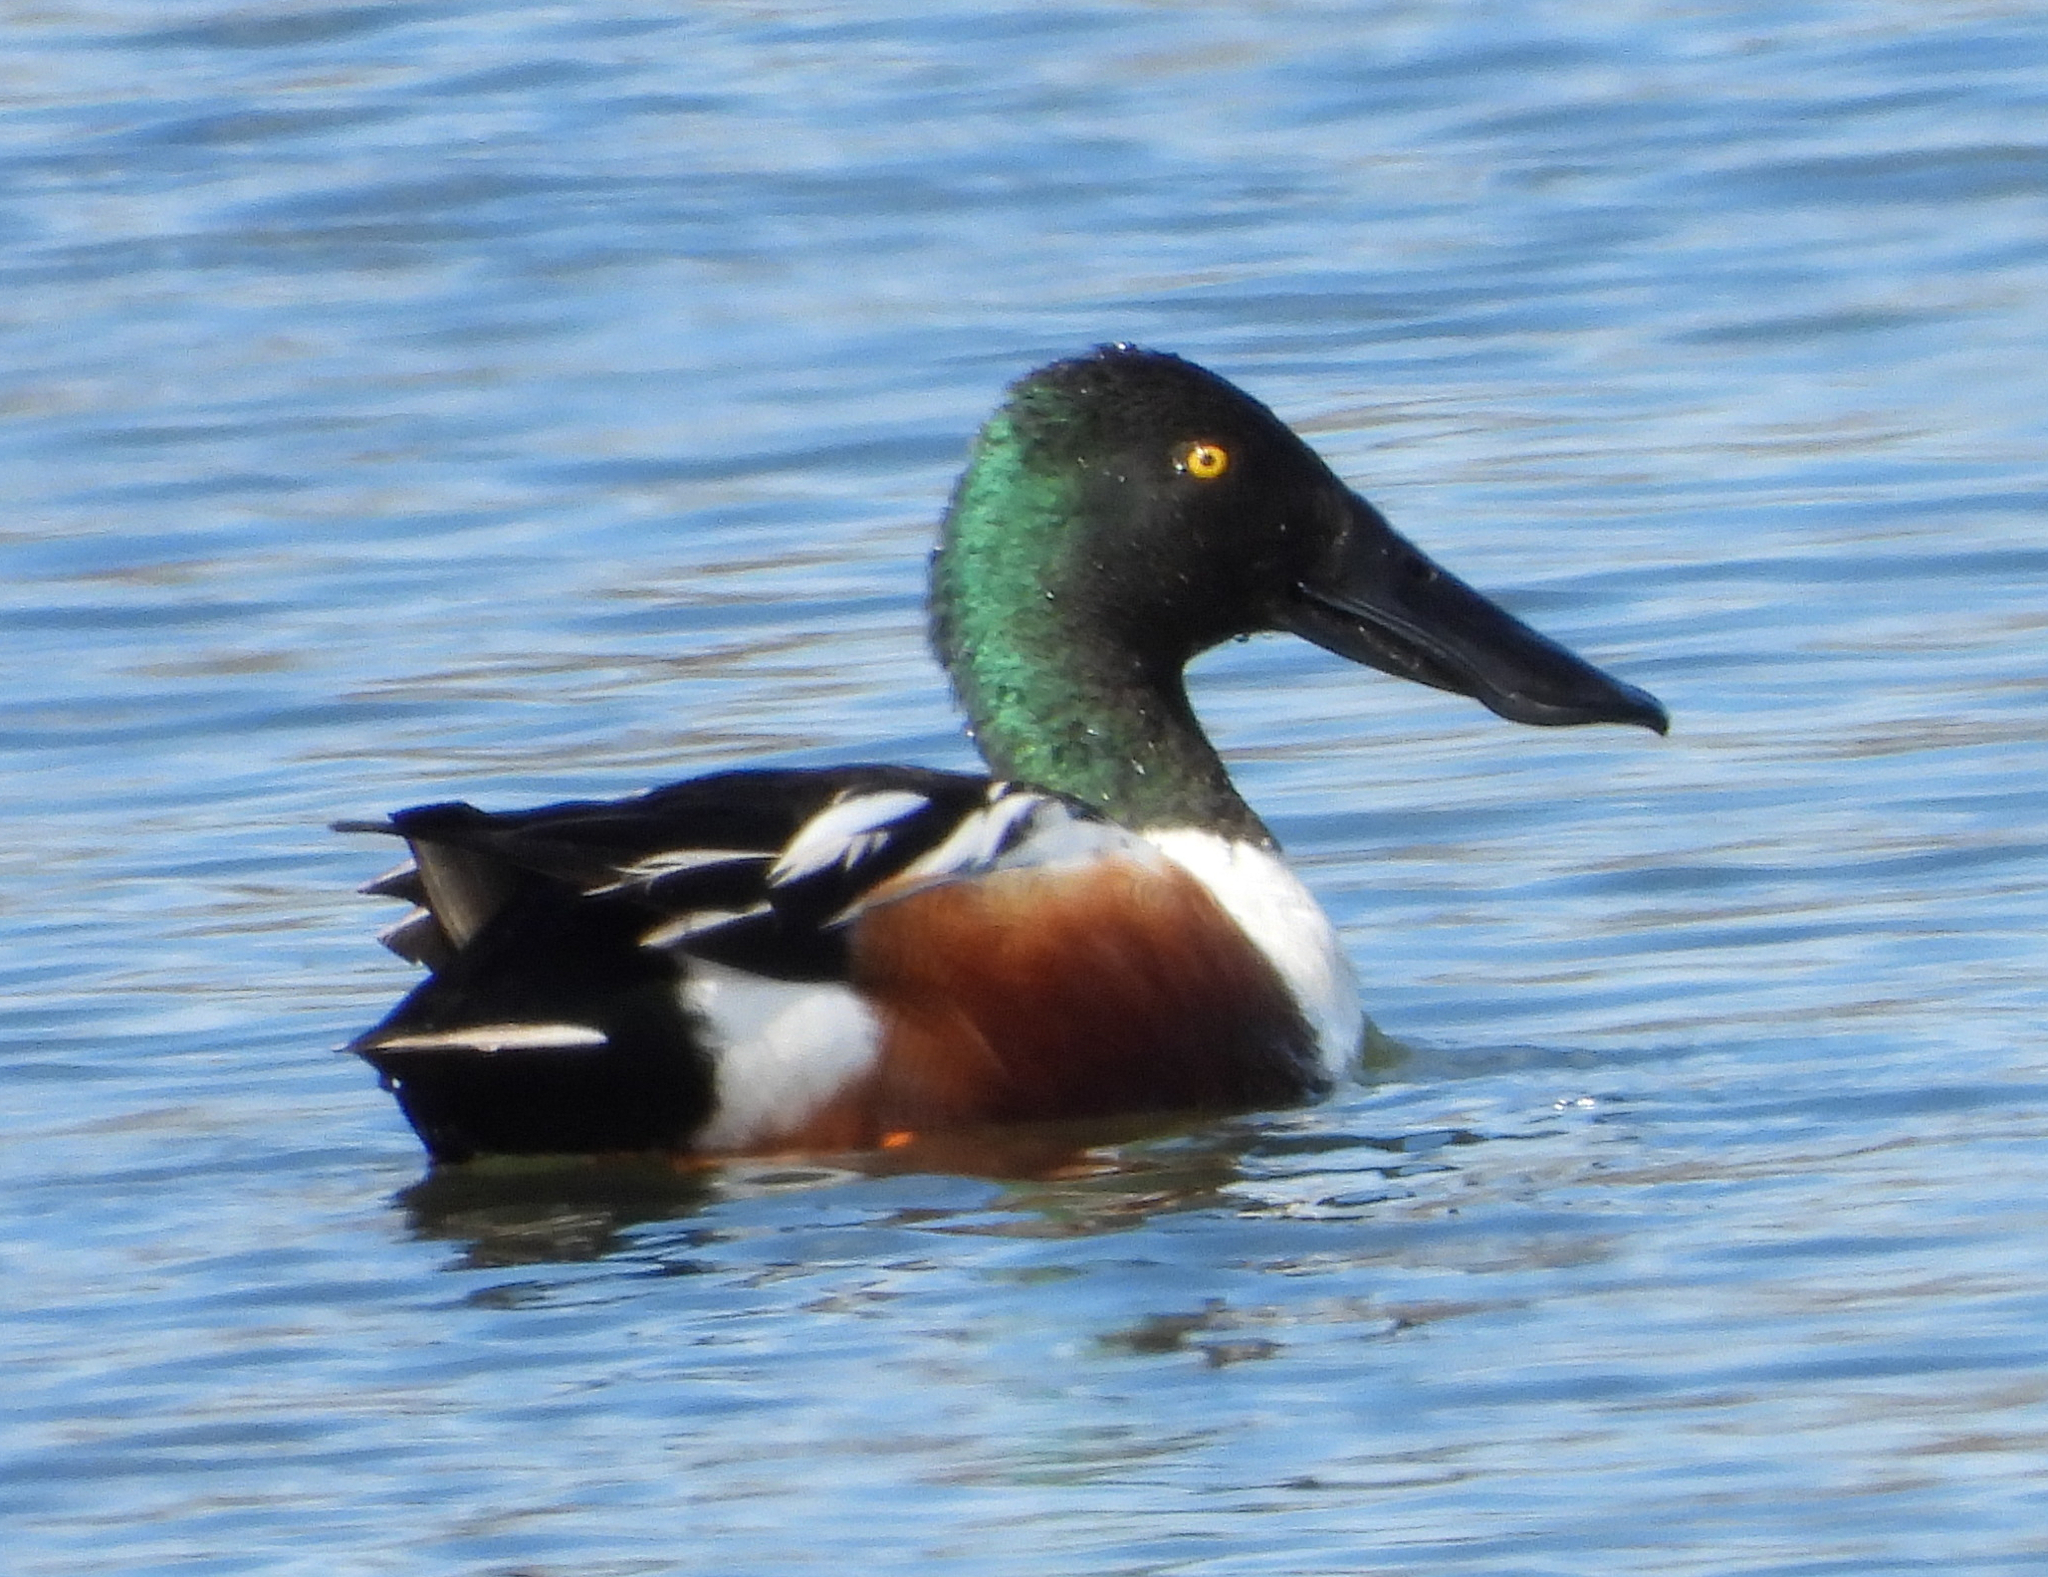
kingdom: Animalia
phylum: Chordata
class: Aves
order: Anseriformes
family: Anatidae
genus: Spatula
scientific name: Spatula clypeata
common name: Northern shoveler
